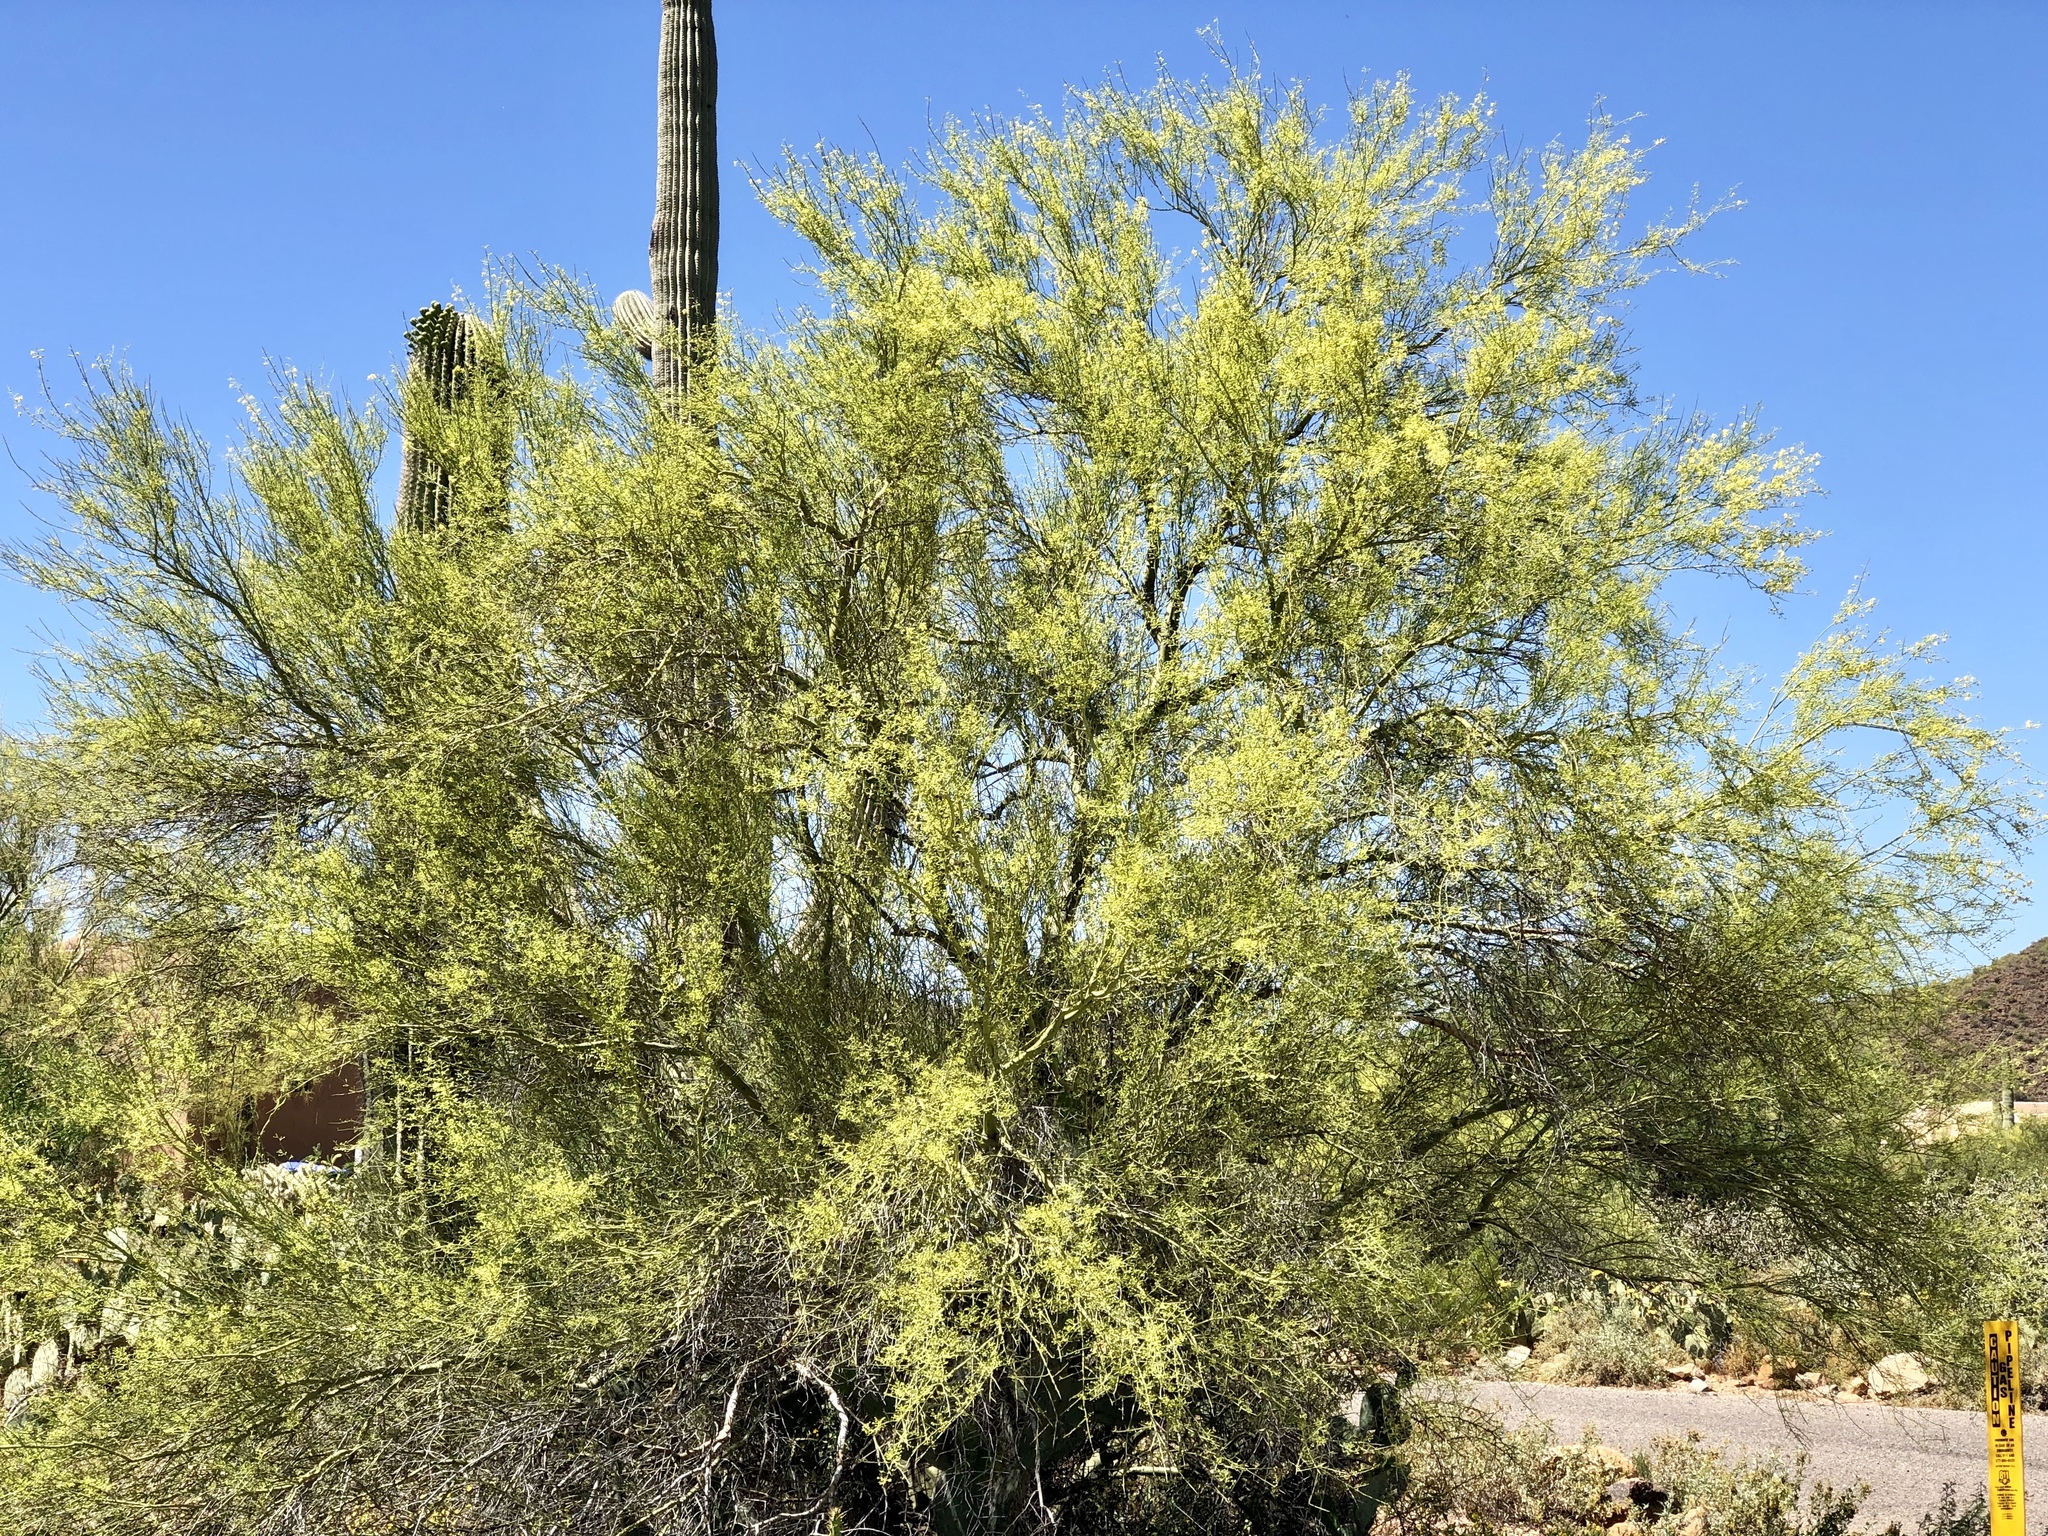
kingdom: Plantae
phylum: Tracheophyta
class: Magnoliopsida
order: Fabales
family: Fabaceae
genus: Parkinsonia
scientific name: Parkinsonia microphylla
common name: Yellow paloverde
